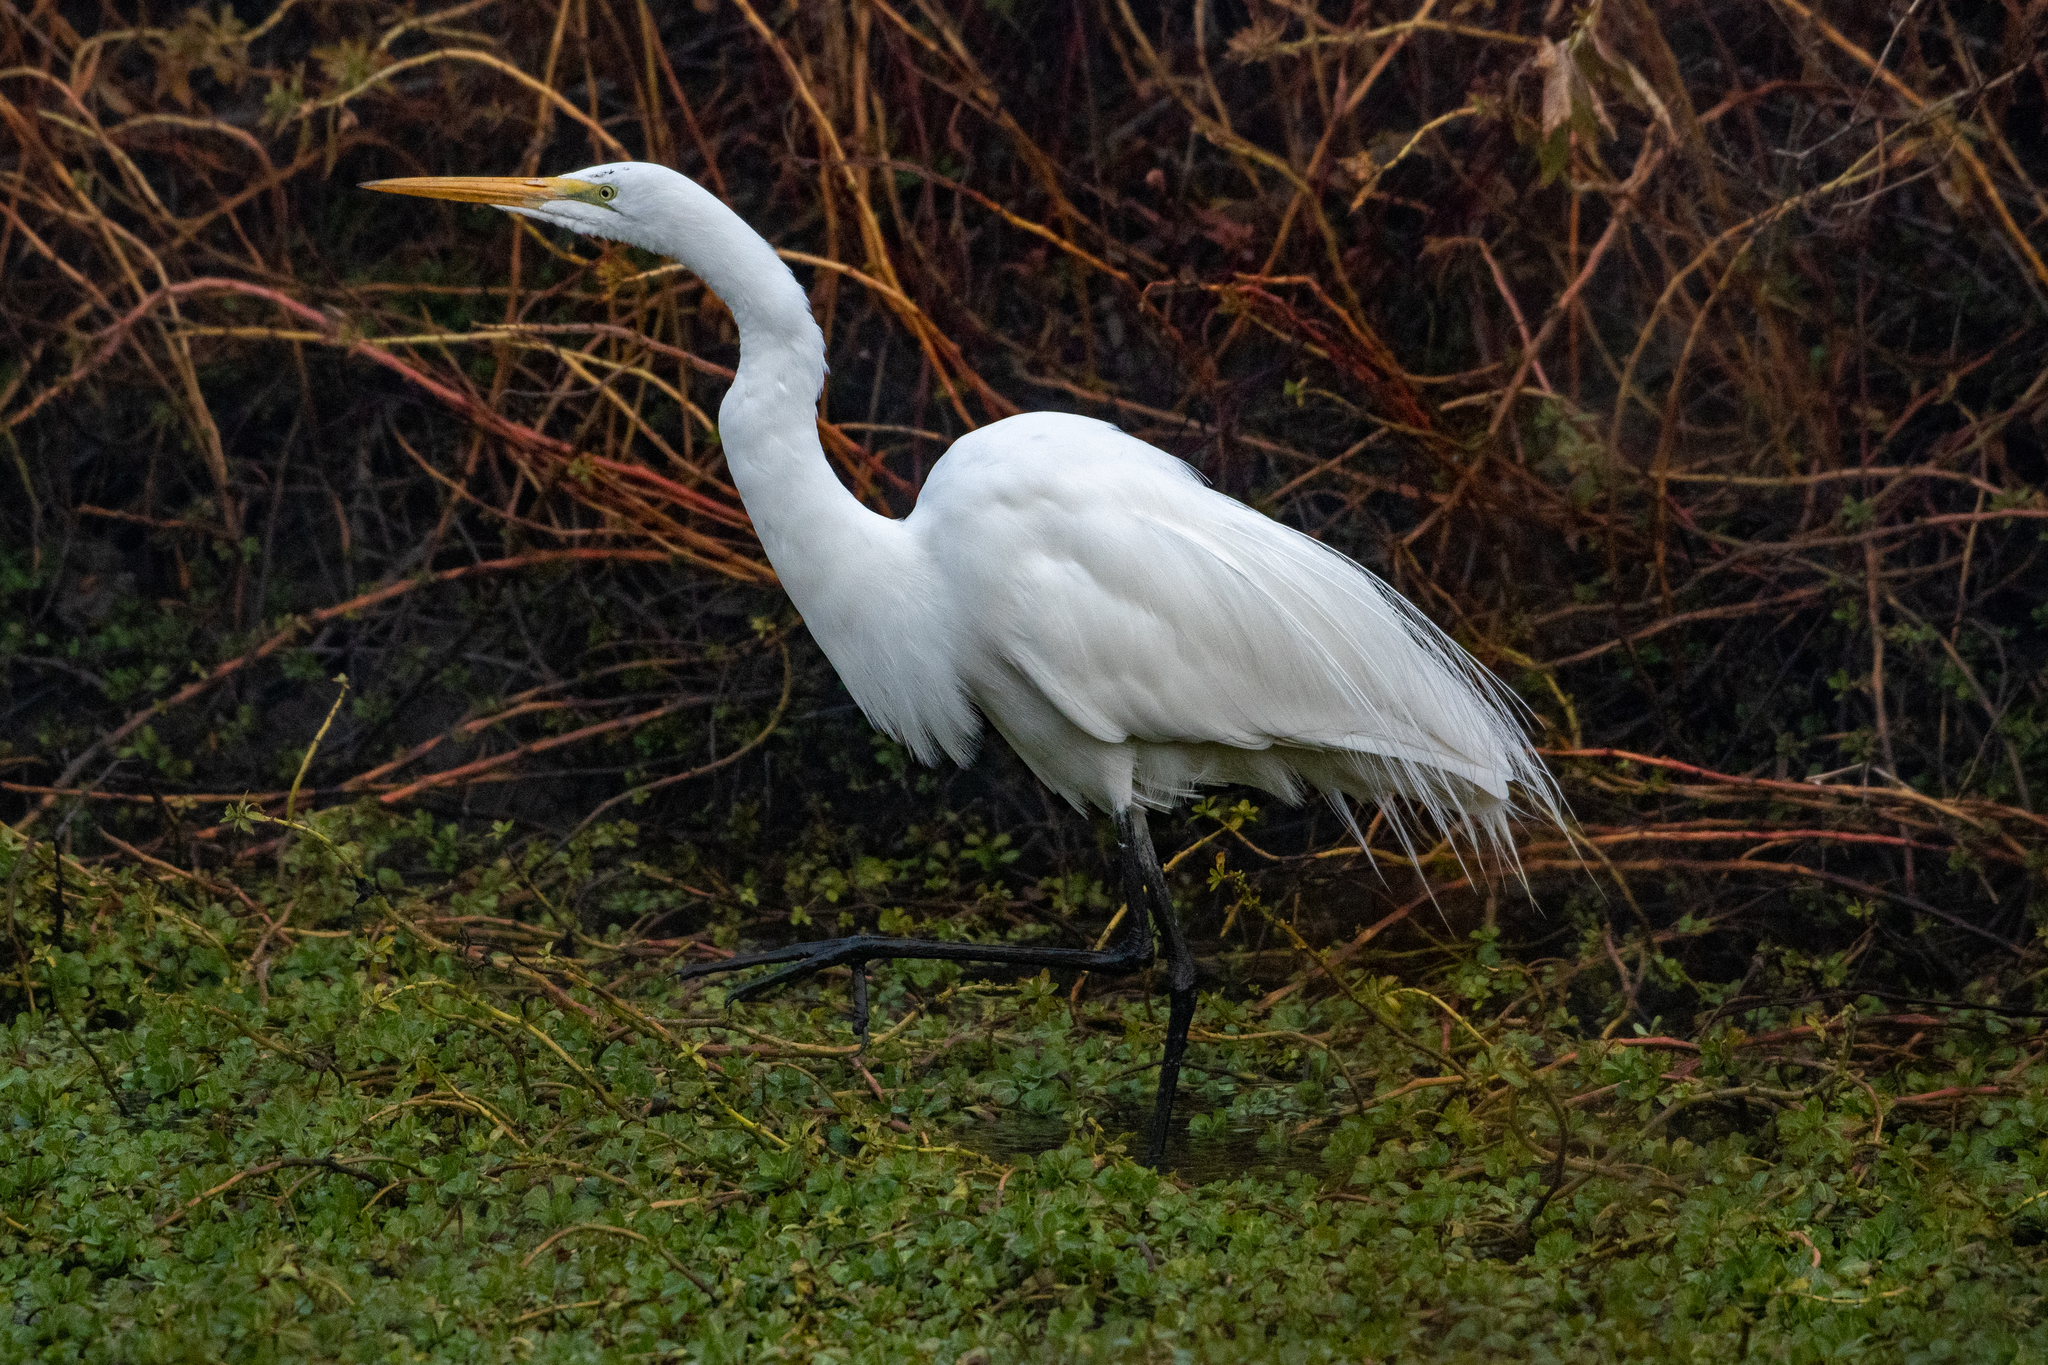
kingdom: Animalia
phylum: Chordata
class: Aves
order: Pelecaniformes
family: Ardeidae
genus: Ardea
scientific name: Ardea alba
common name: Great egret
